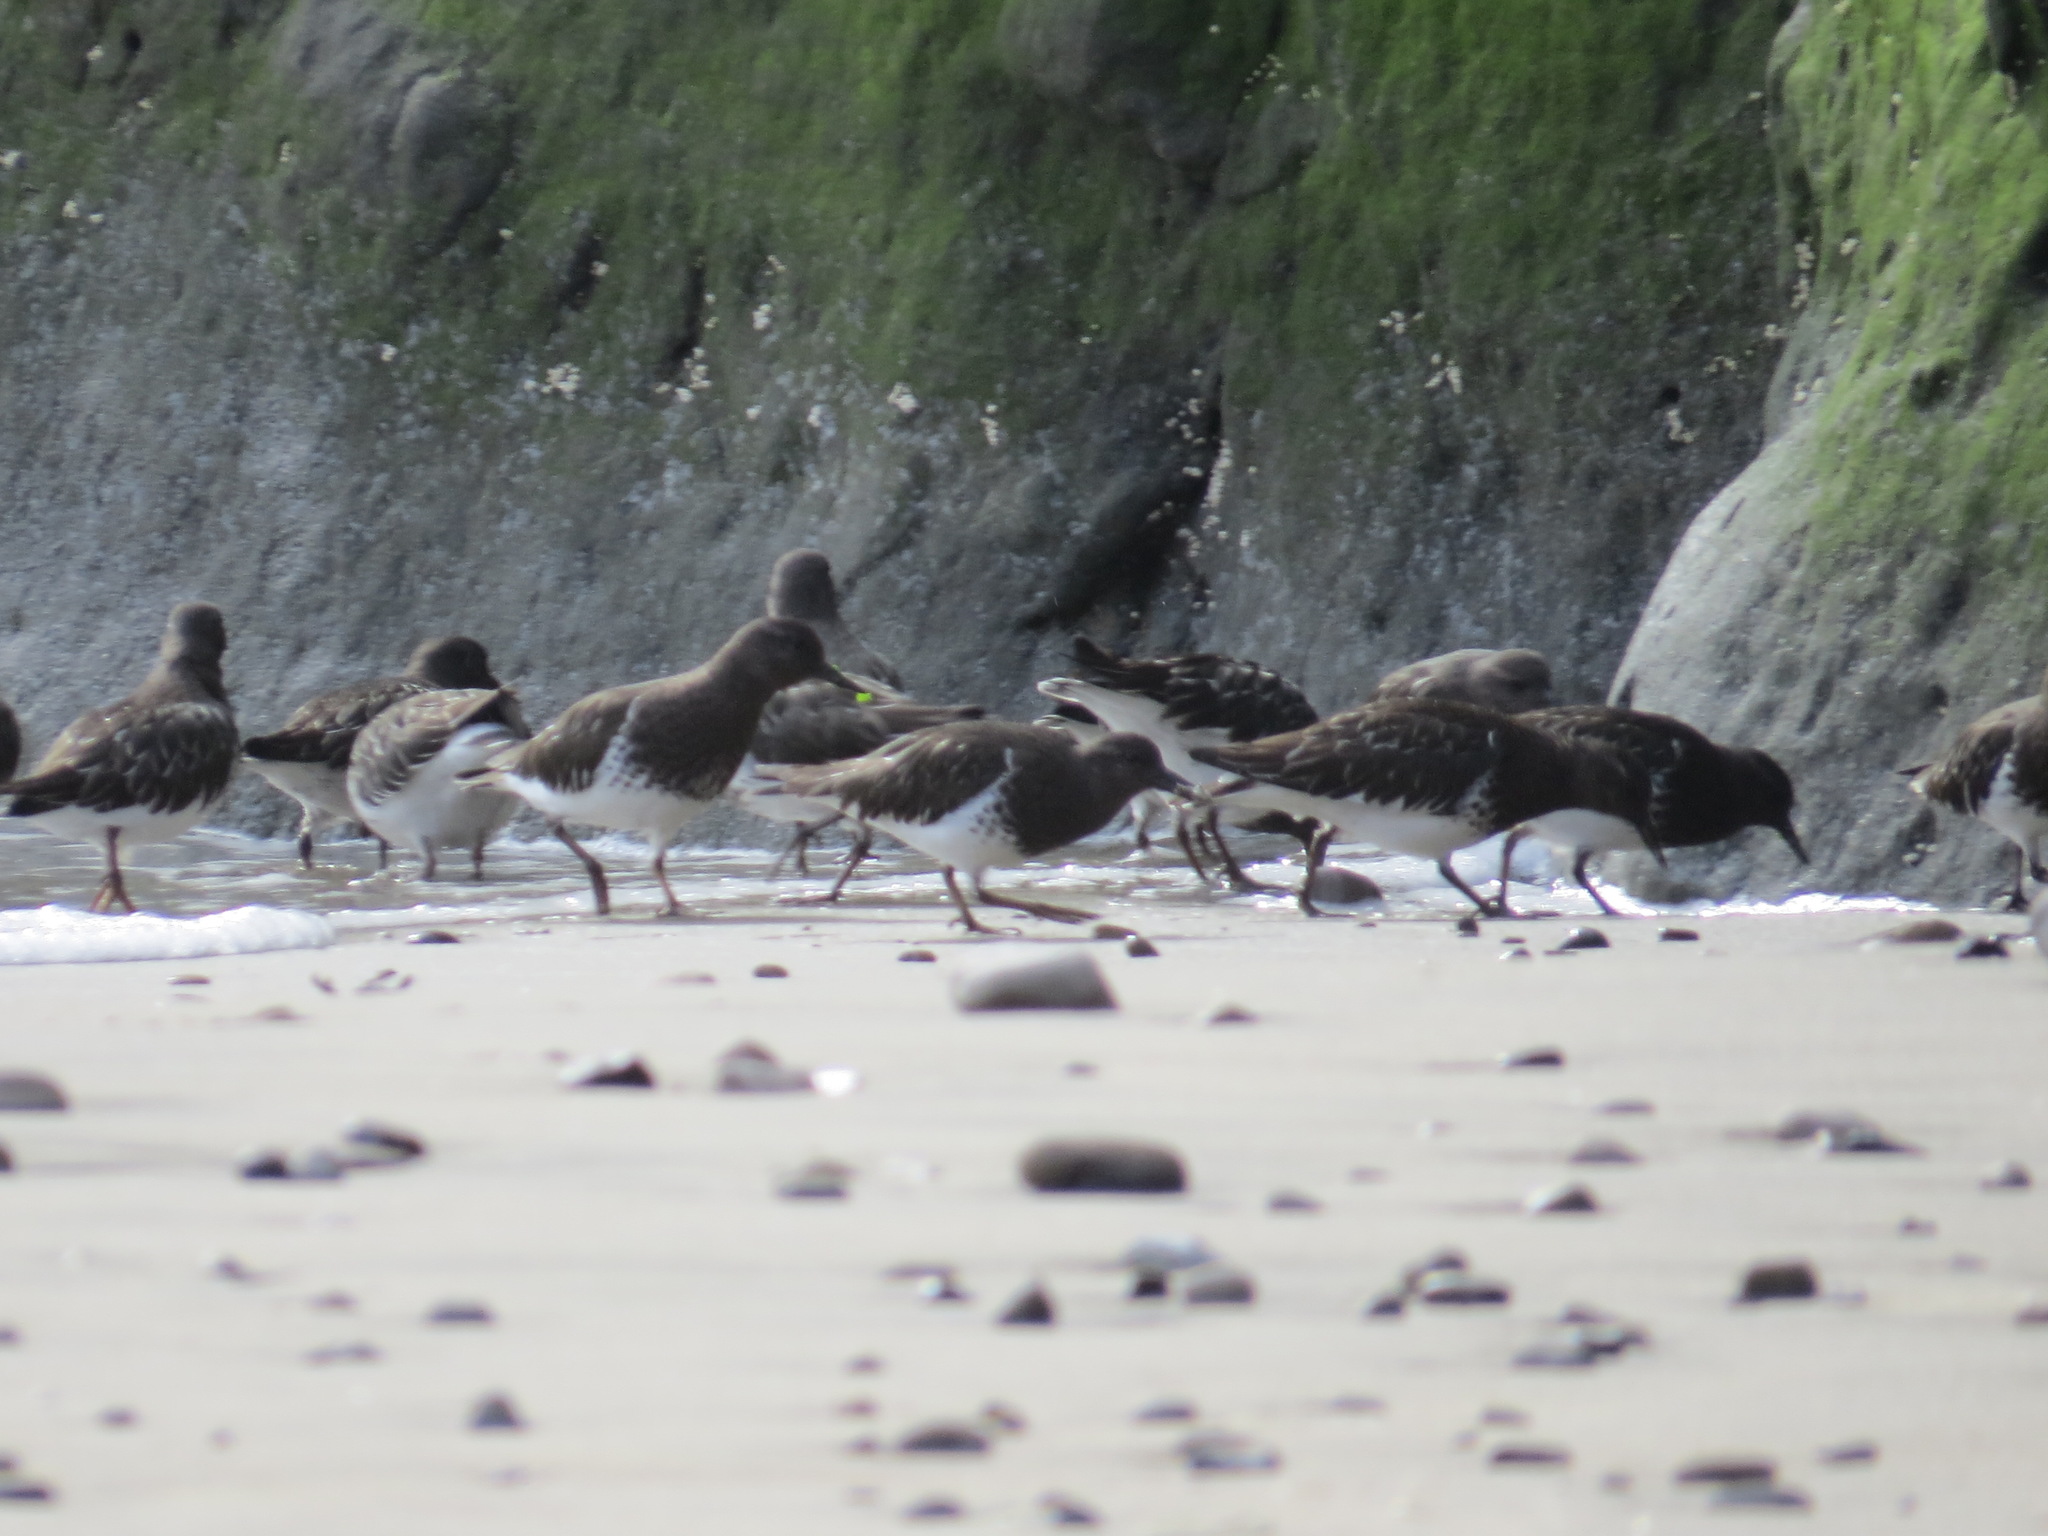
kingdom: Animalia
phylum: Chordata
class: Aves
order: Charadriiformes
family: Scolopacidae
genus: Arenaria
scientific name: Arenaria melanocephala
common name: Black turnstone
